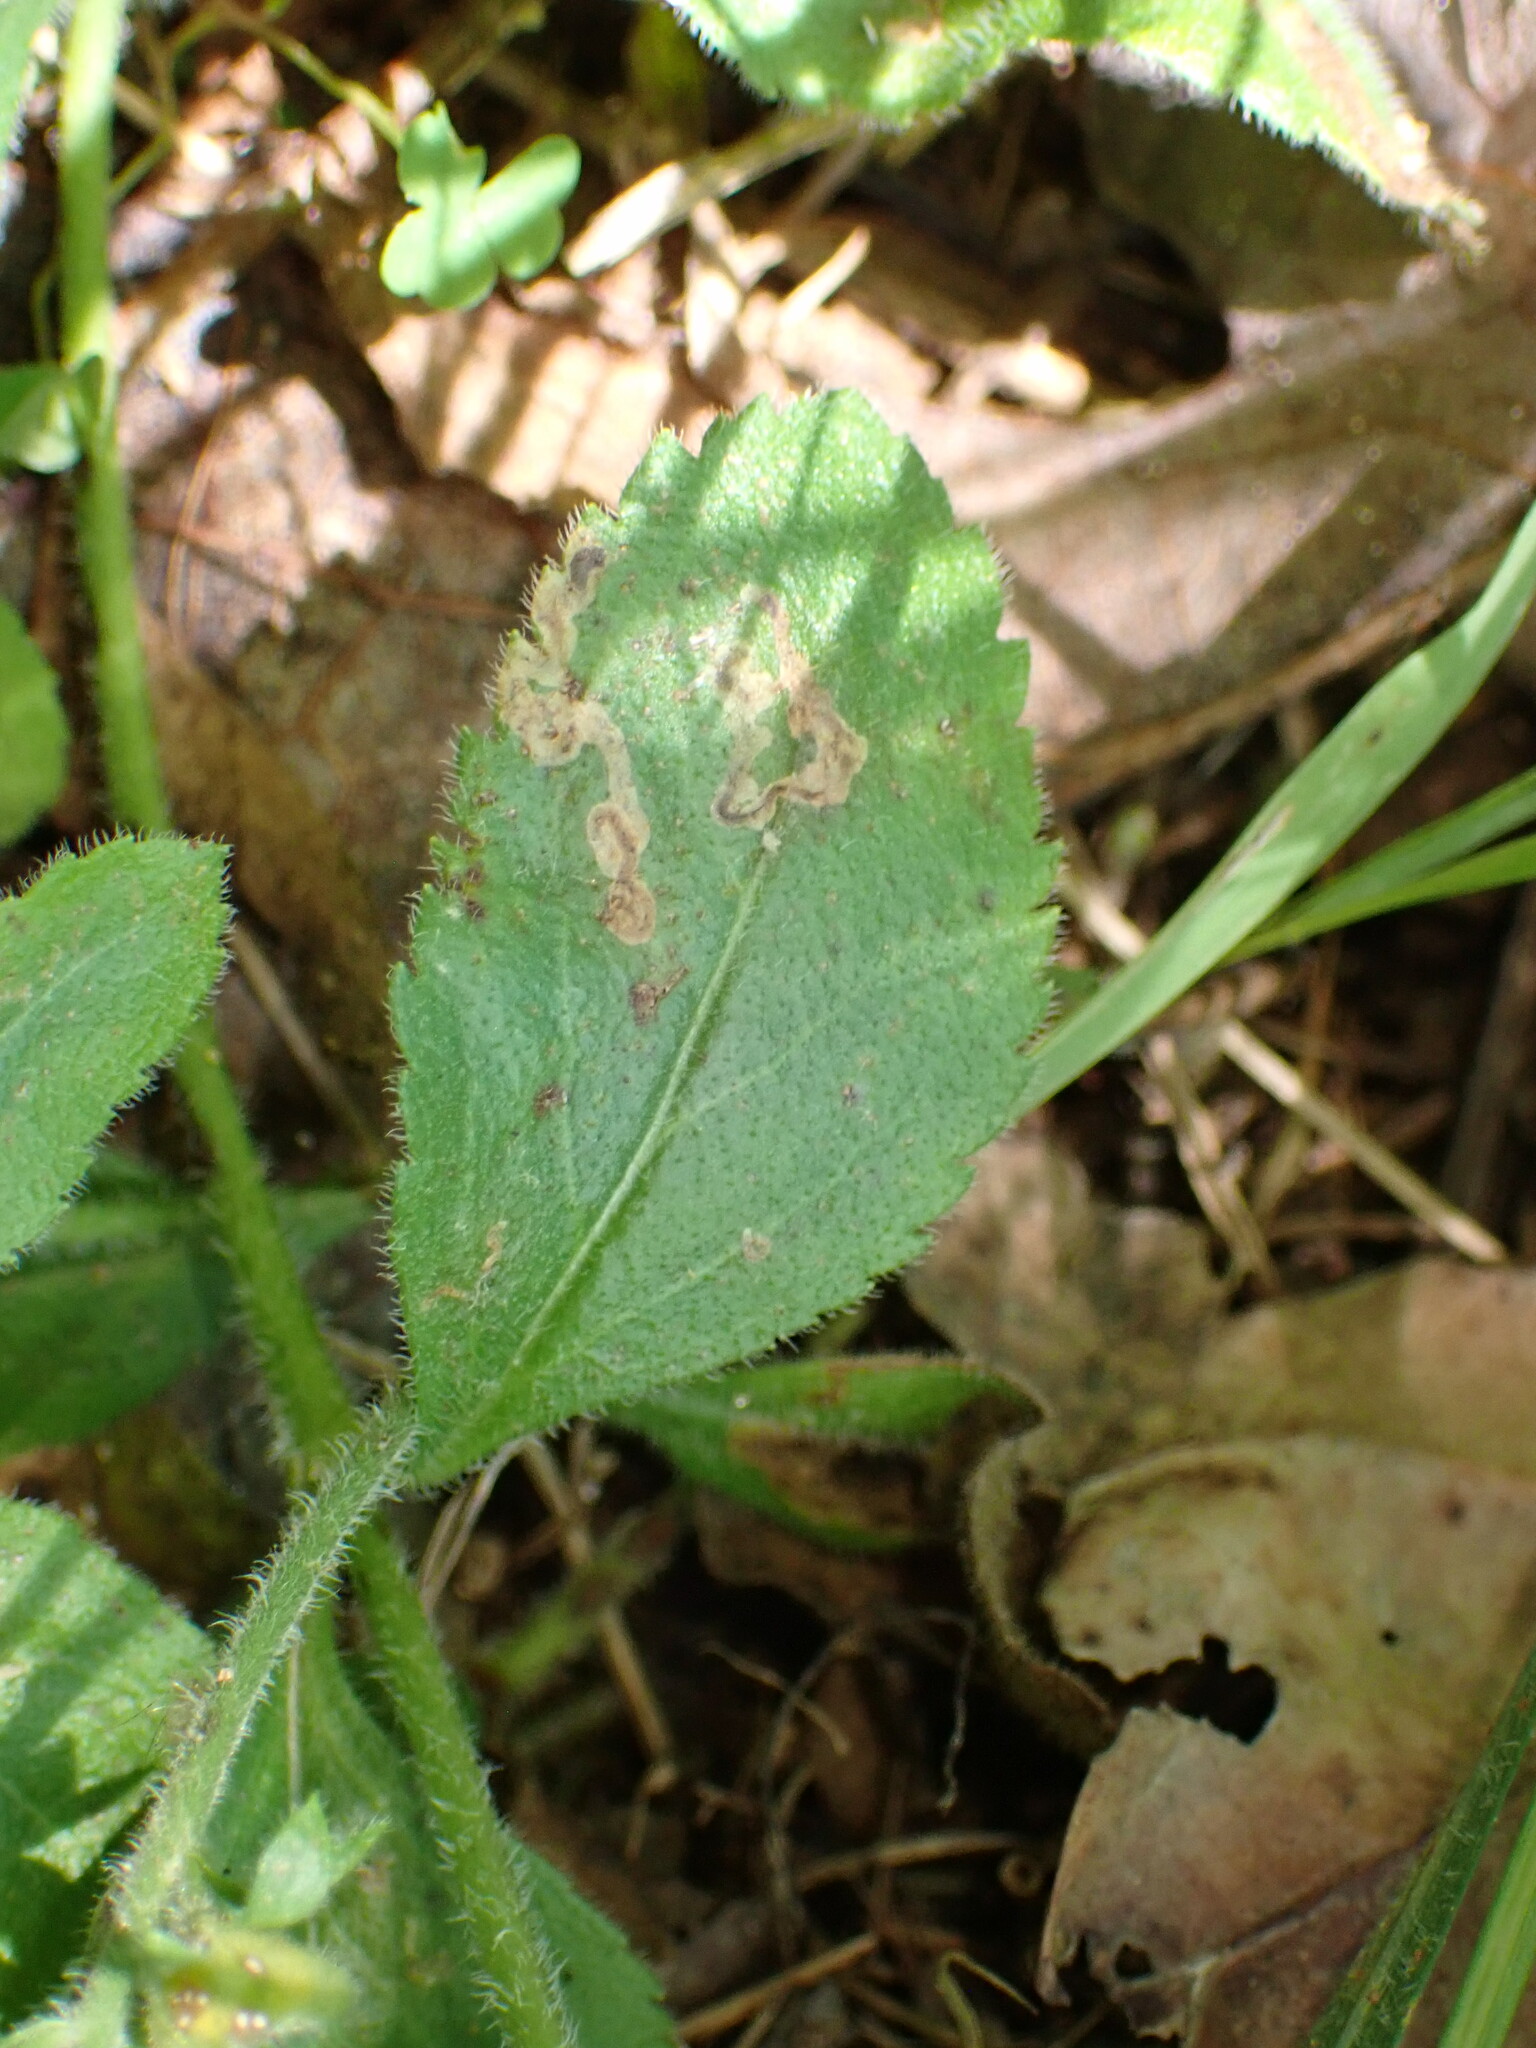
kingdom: Animalia
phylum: Arthropoda
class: Insecta
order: Diptera
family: Agromyzidae
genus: Phytomyza
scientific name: Phytomyza crassiseta
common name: Leaf-miner fly
